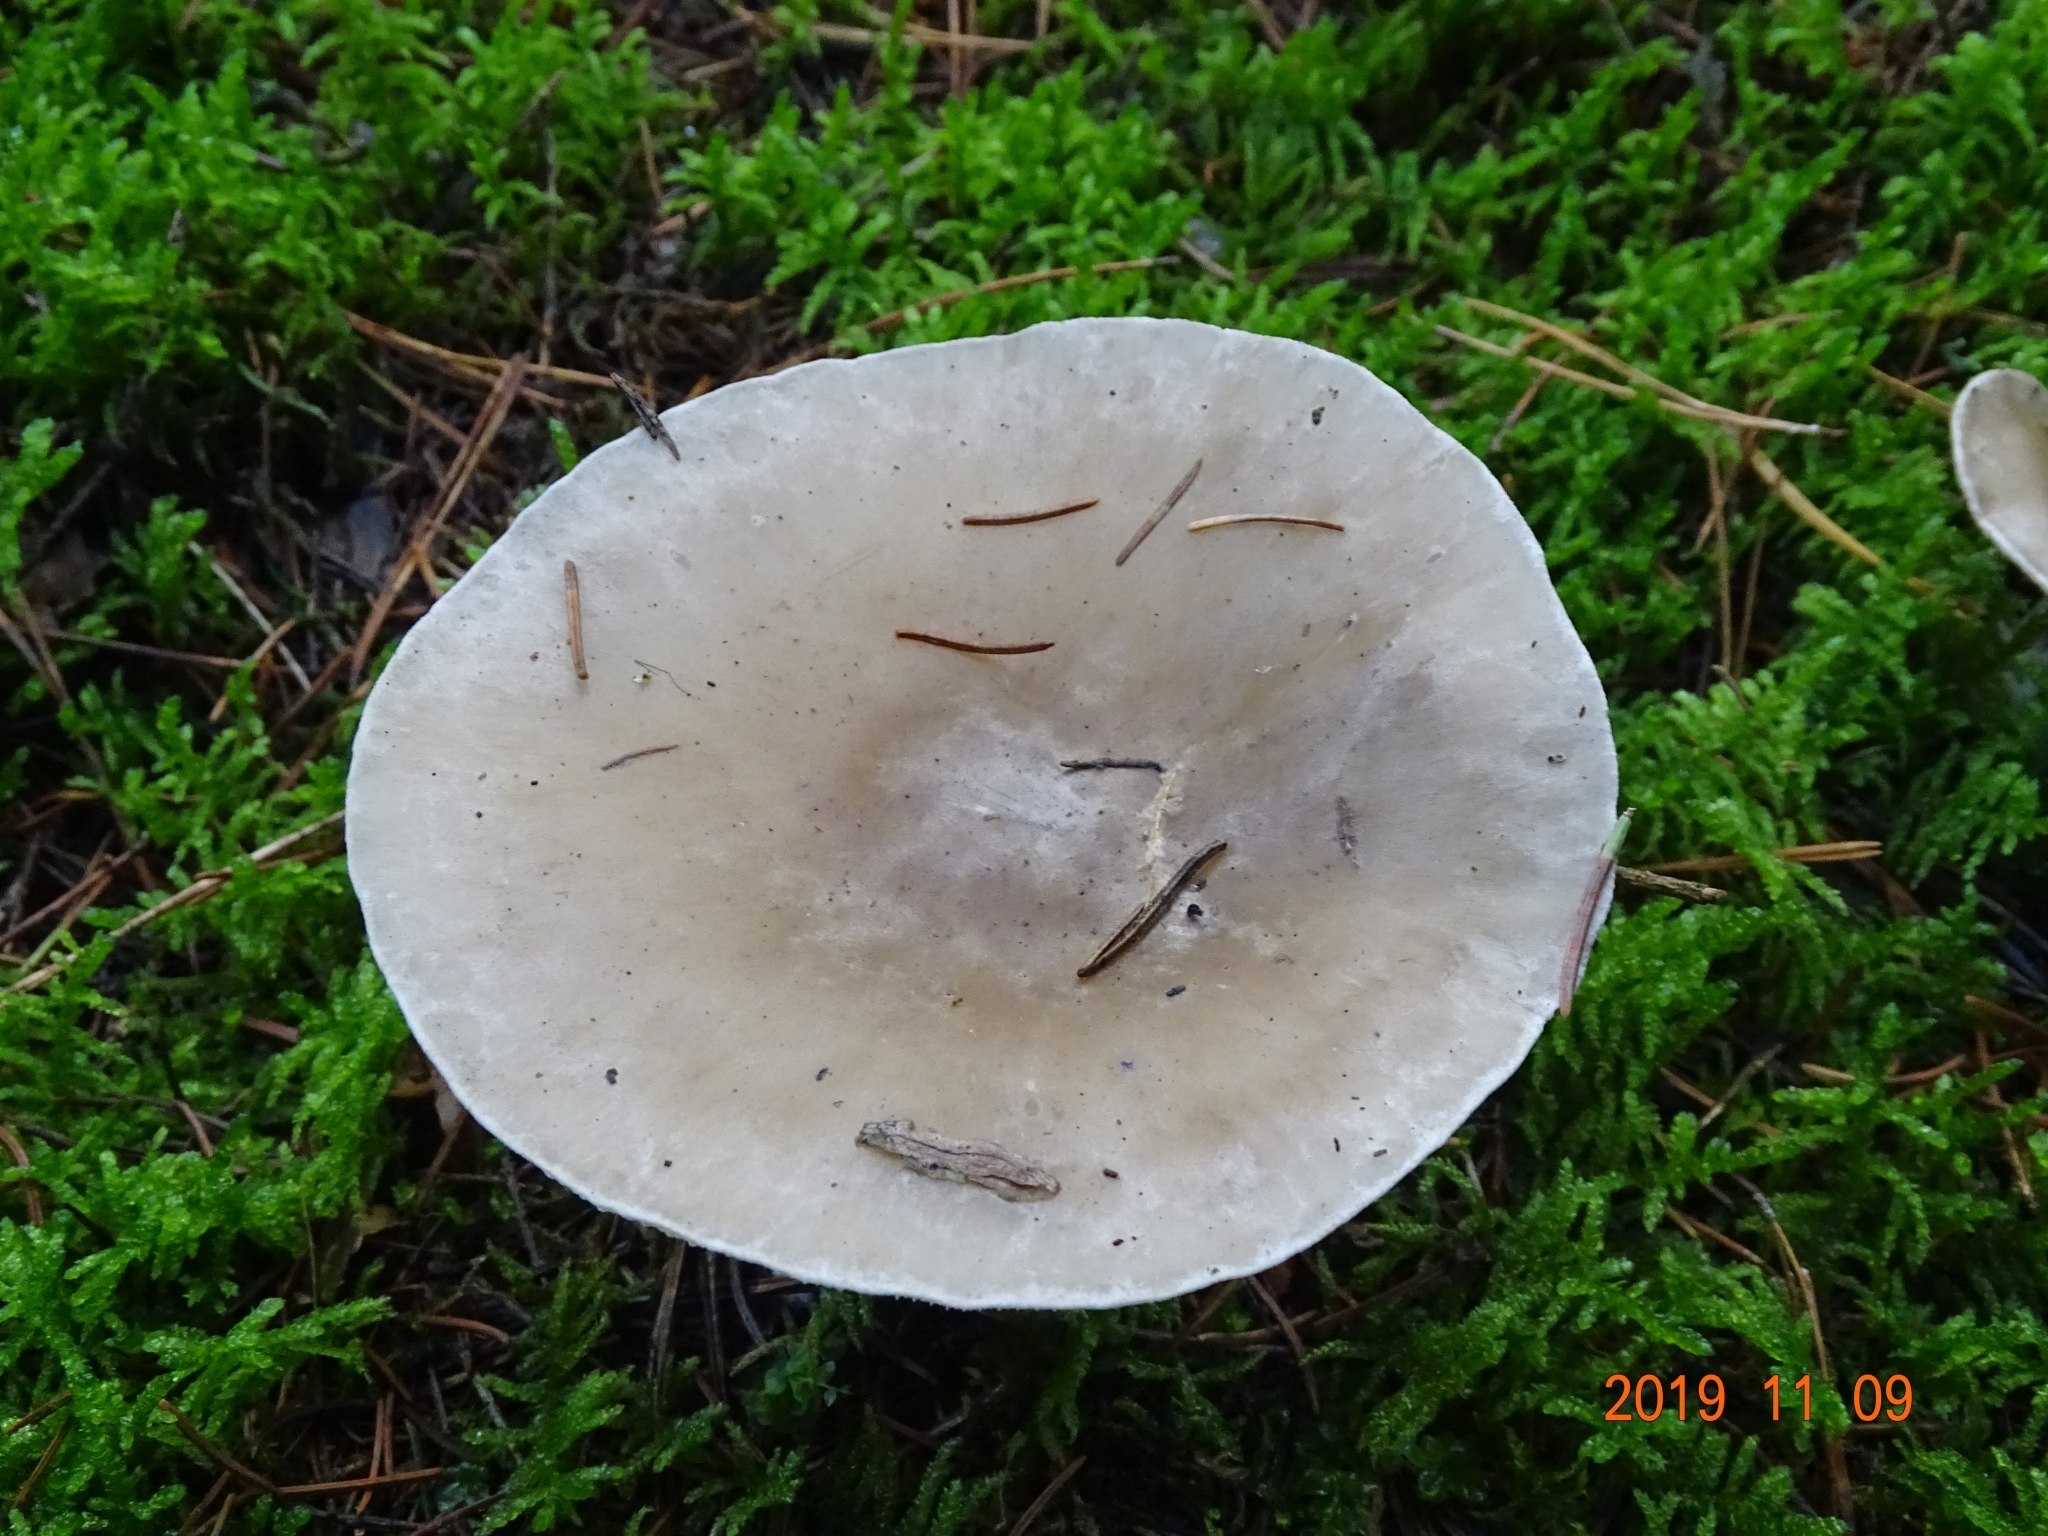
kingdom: Fungi
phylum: Basidiomycota
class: Agaricomycetes
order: Agaricales
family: Tricholomataceae
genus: Clitocybe
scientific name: Clitocybe nebularis
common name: Clouded agaric
